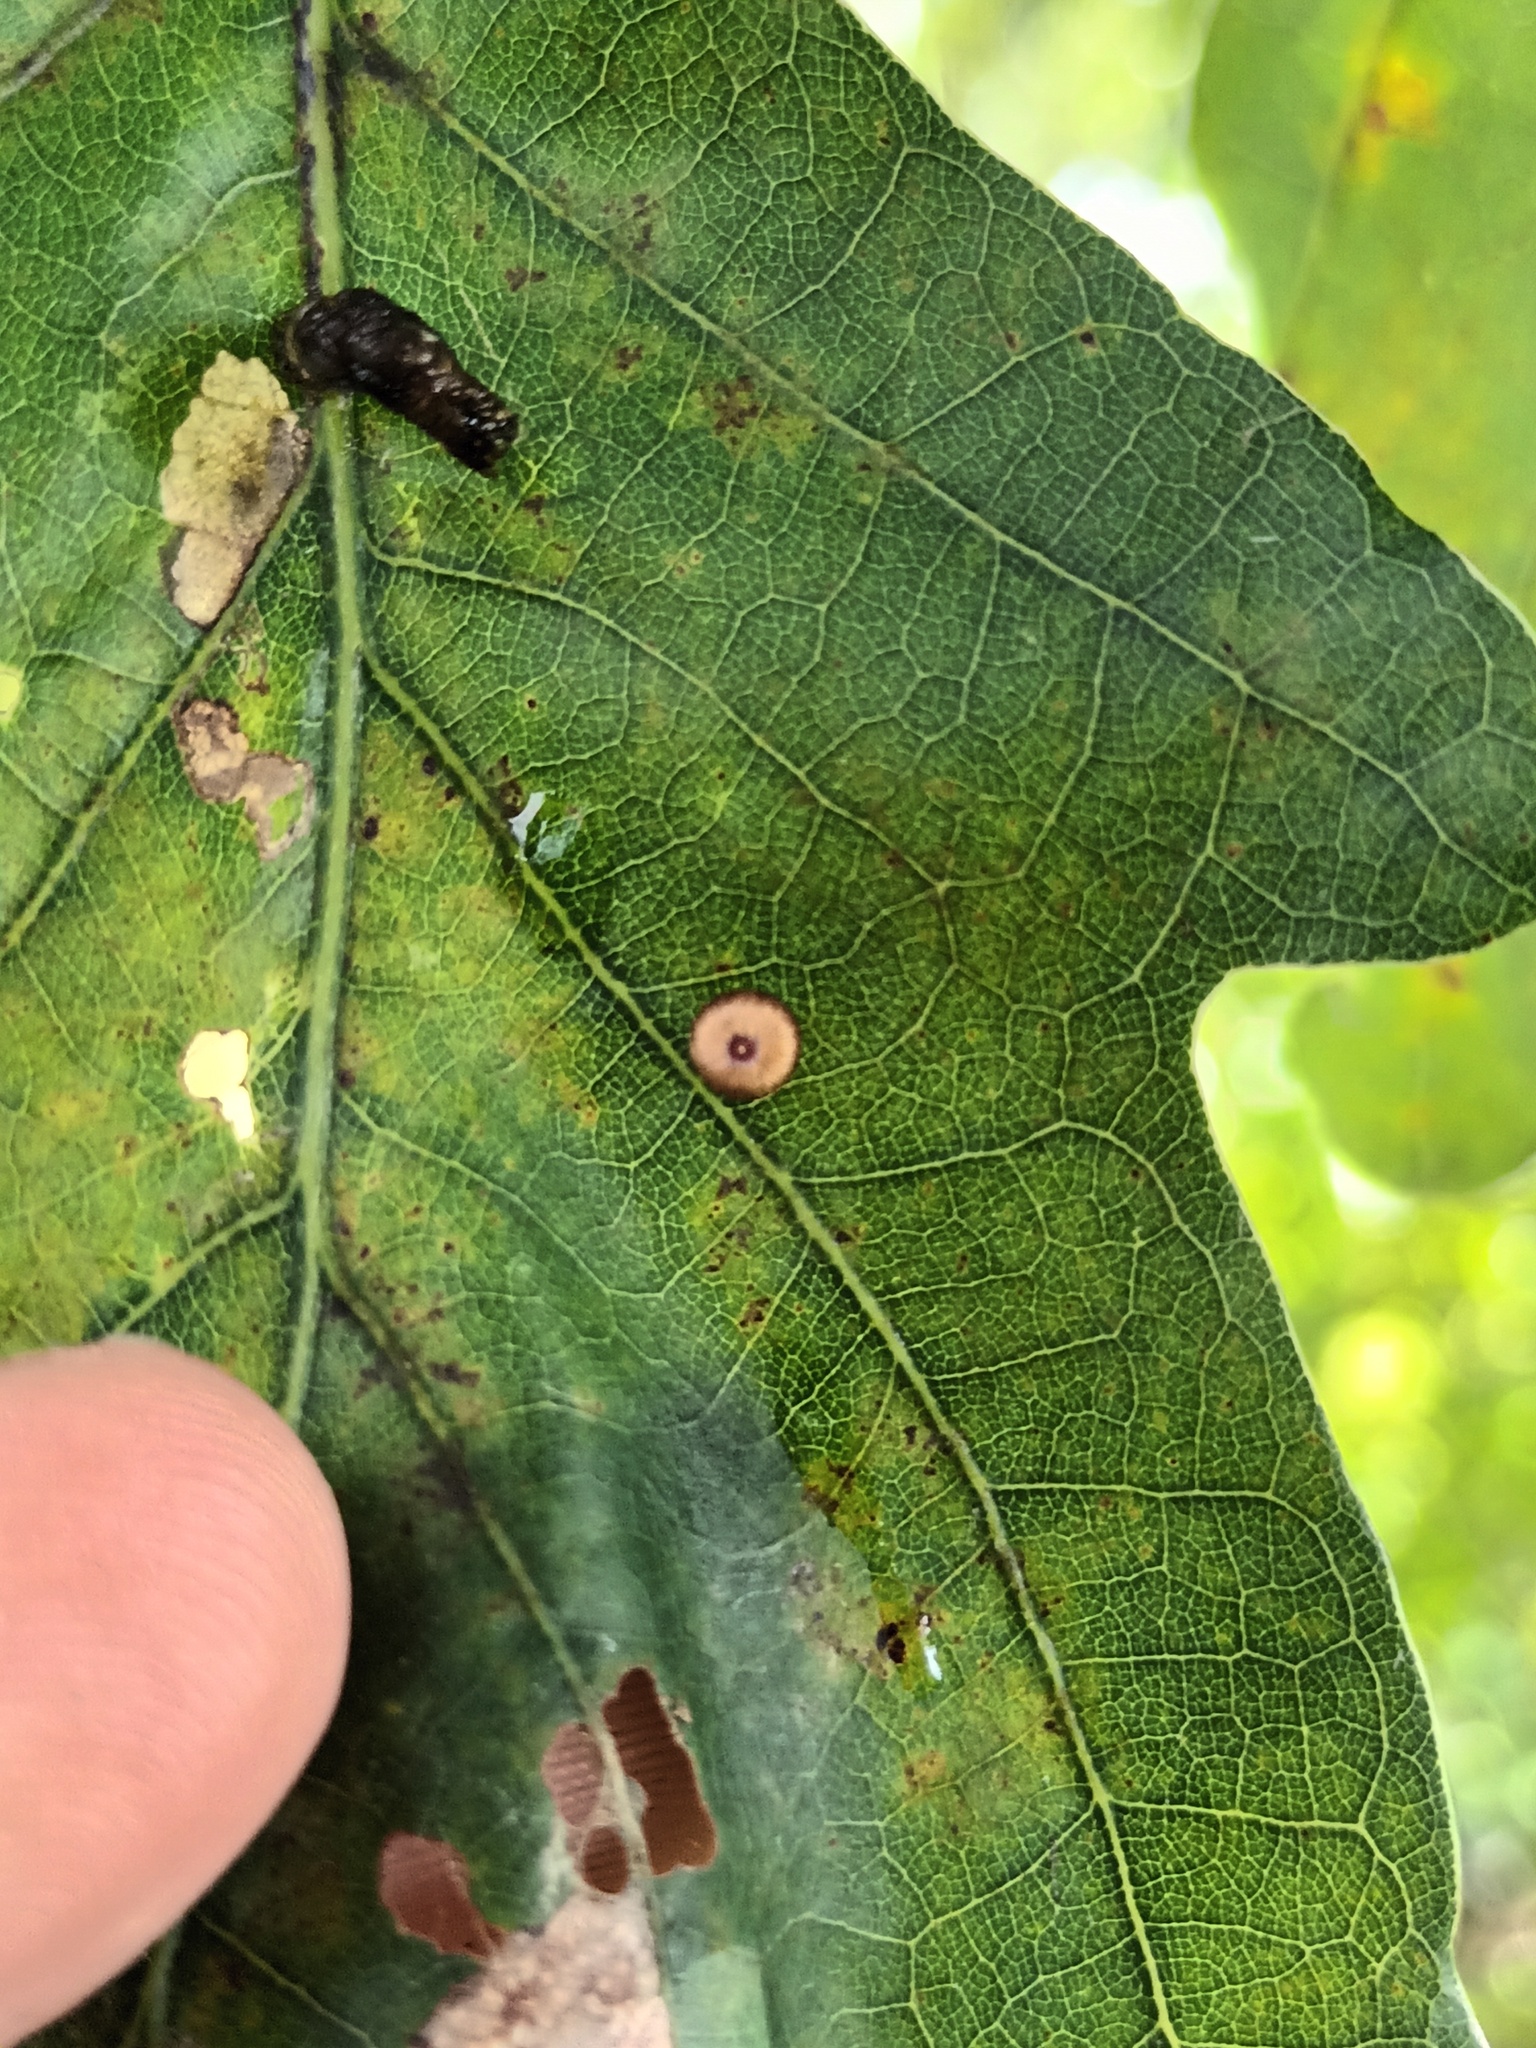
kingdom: Animalia
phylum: Arthropoda
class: Insecta
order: Hymenoptera
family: Cynipidae
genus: Neuroterus
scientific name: Neuroterus numismalis
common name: Silk-button spangle gall
